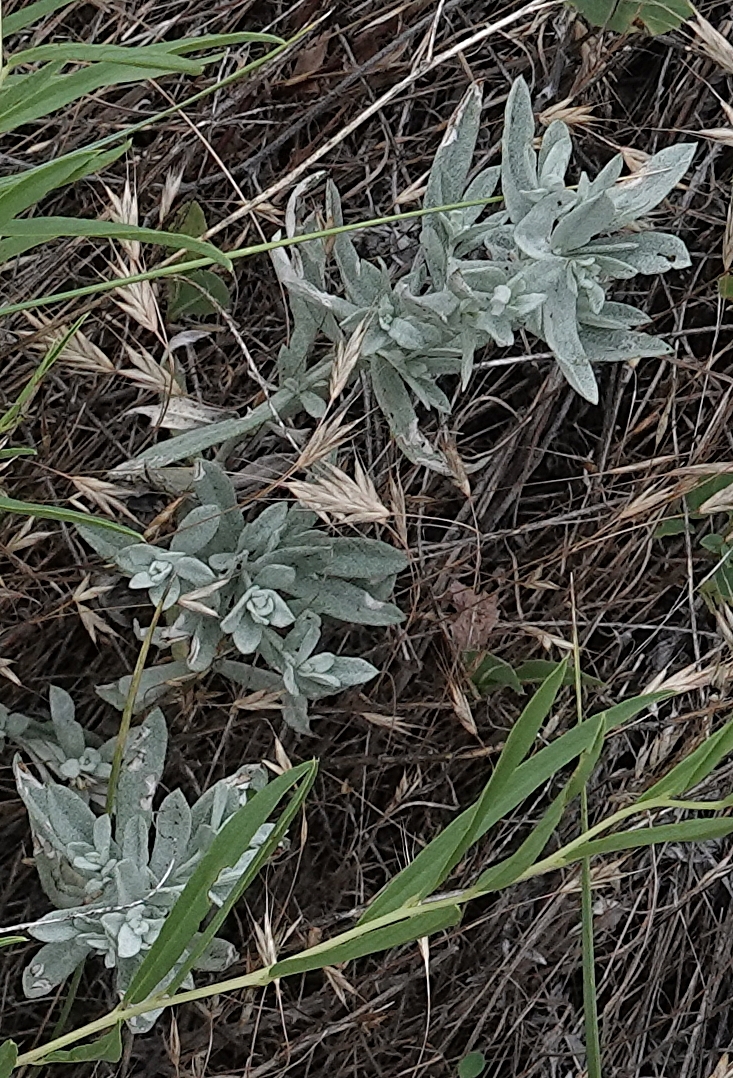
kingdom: Plantae
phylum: Tracheophyta
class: Magnoliopsida
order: Asterales
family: Asteraceae
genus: Artemisia
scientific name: Artemisia ludoviciana
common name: Western mugwort
